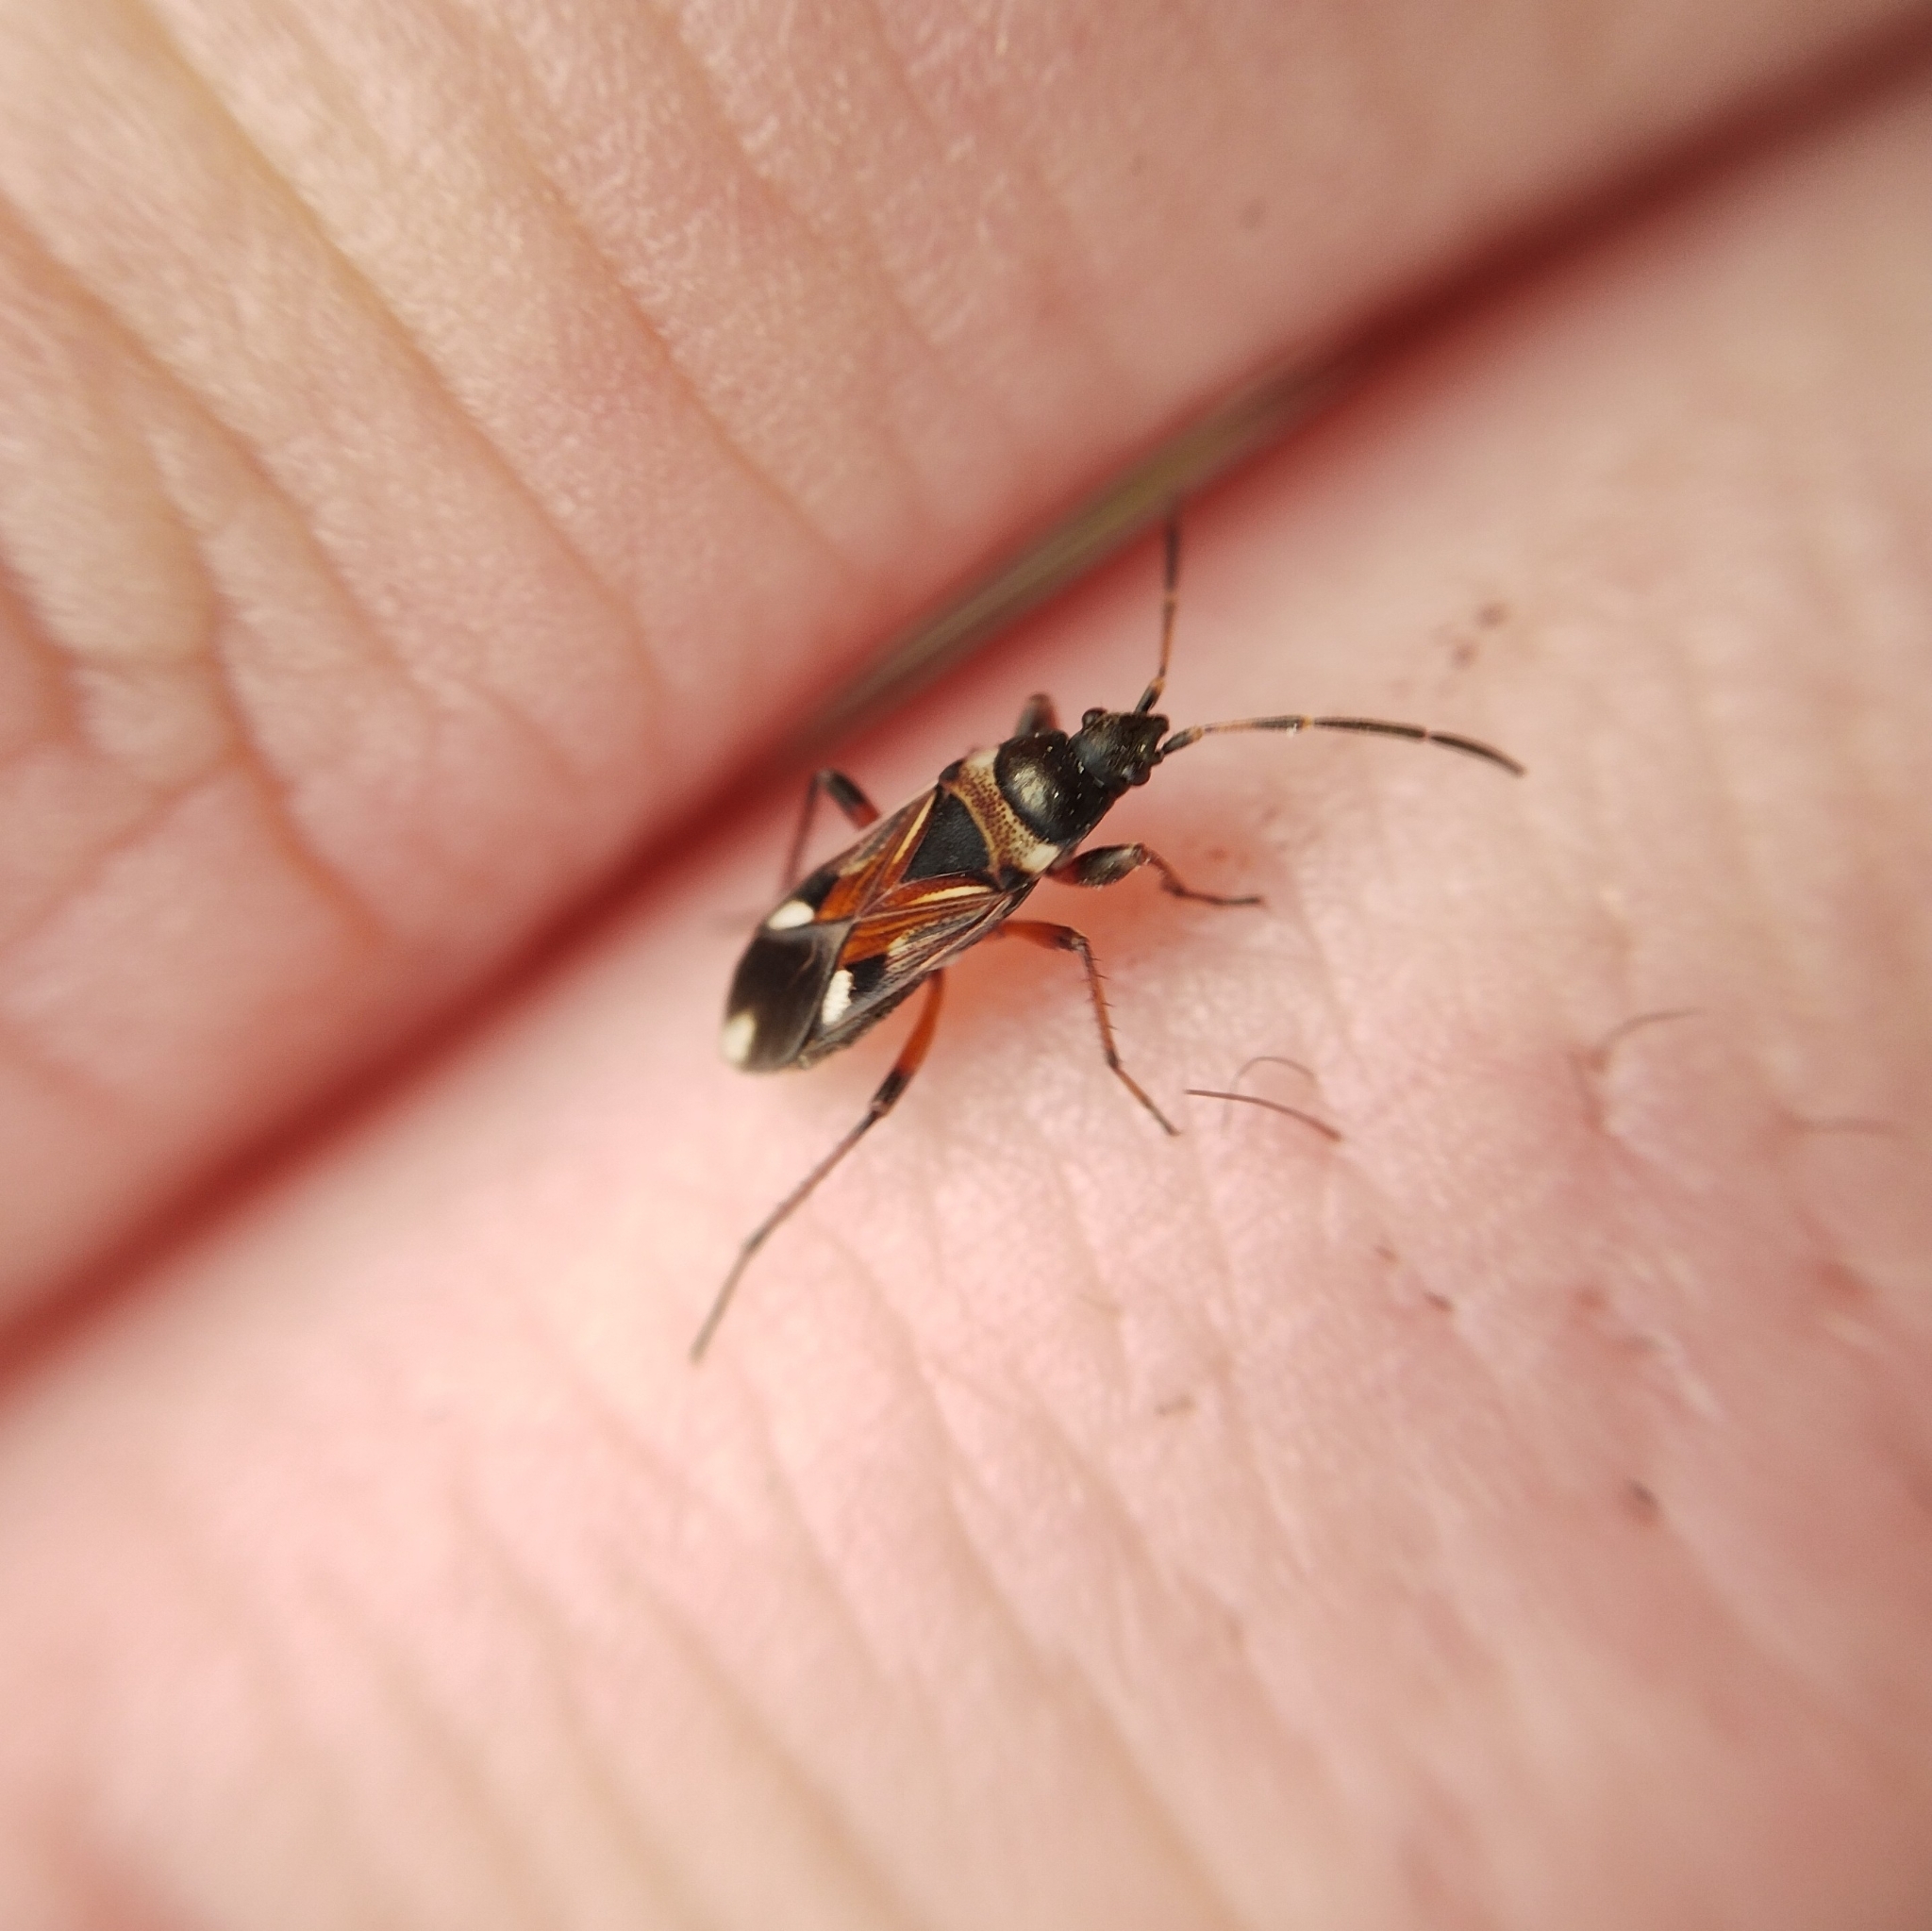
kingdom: Animalia
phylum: Arthropoda
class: Insecta
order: Hemiptera
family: Rhyparochromidae
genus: Raglius
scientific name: Raglius alboacuminatus
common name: Dirt-colored seed bug
